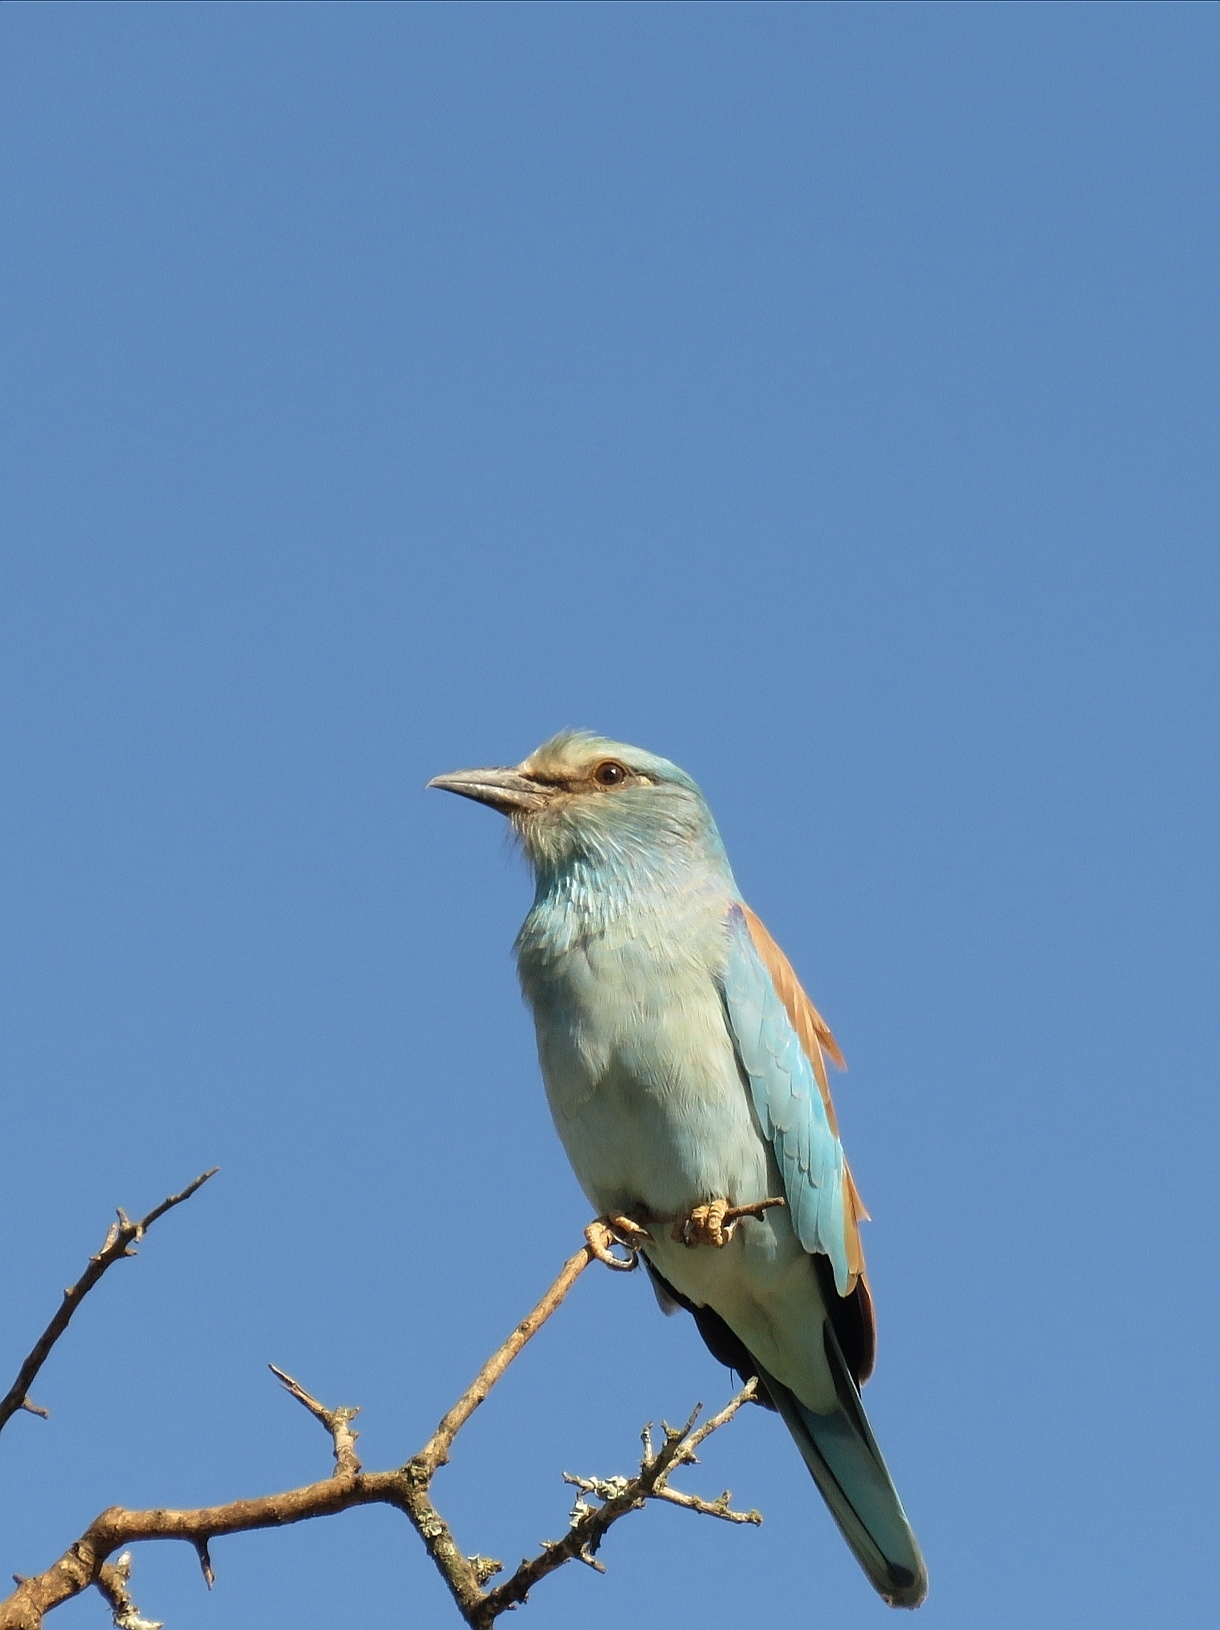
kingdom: Animalia
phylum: Chordata
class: Aves
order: Coraciiformes
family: Coraciidae
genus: Coracias
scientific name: Coracias garrulus
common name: European roller
